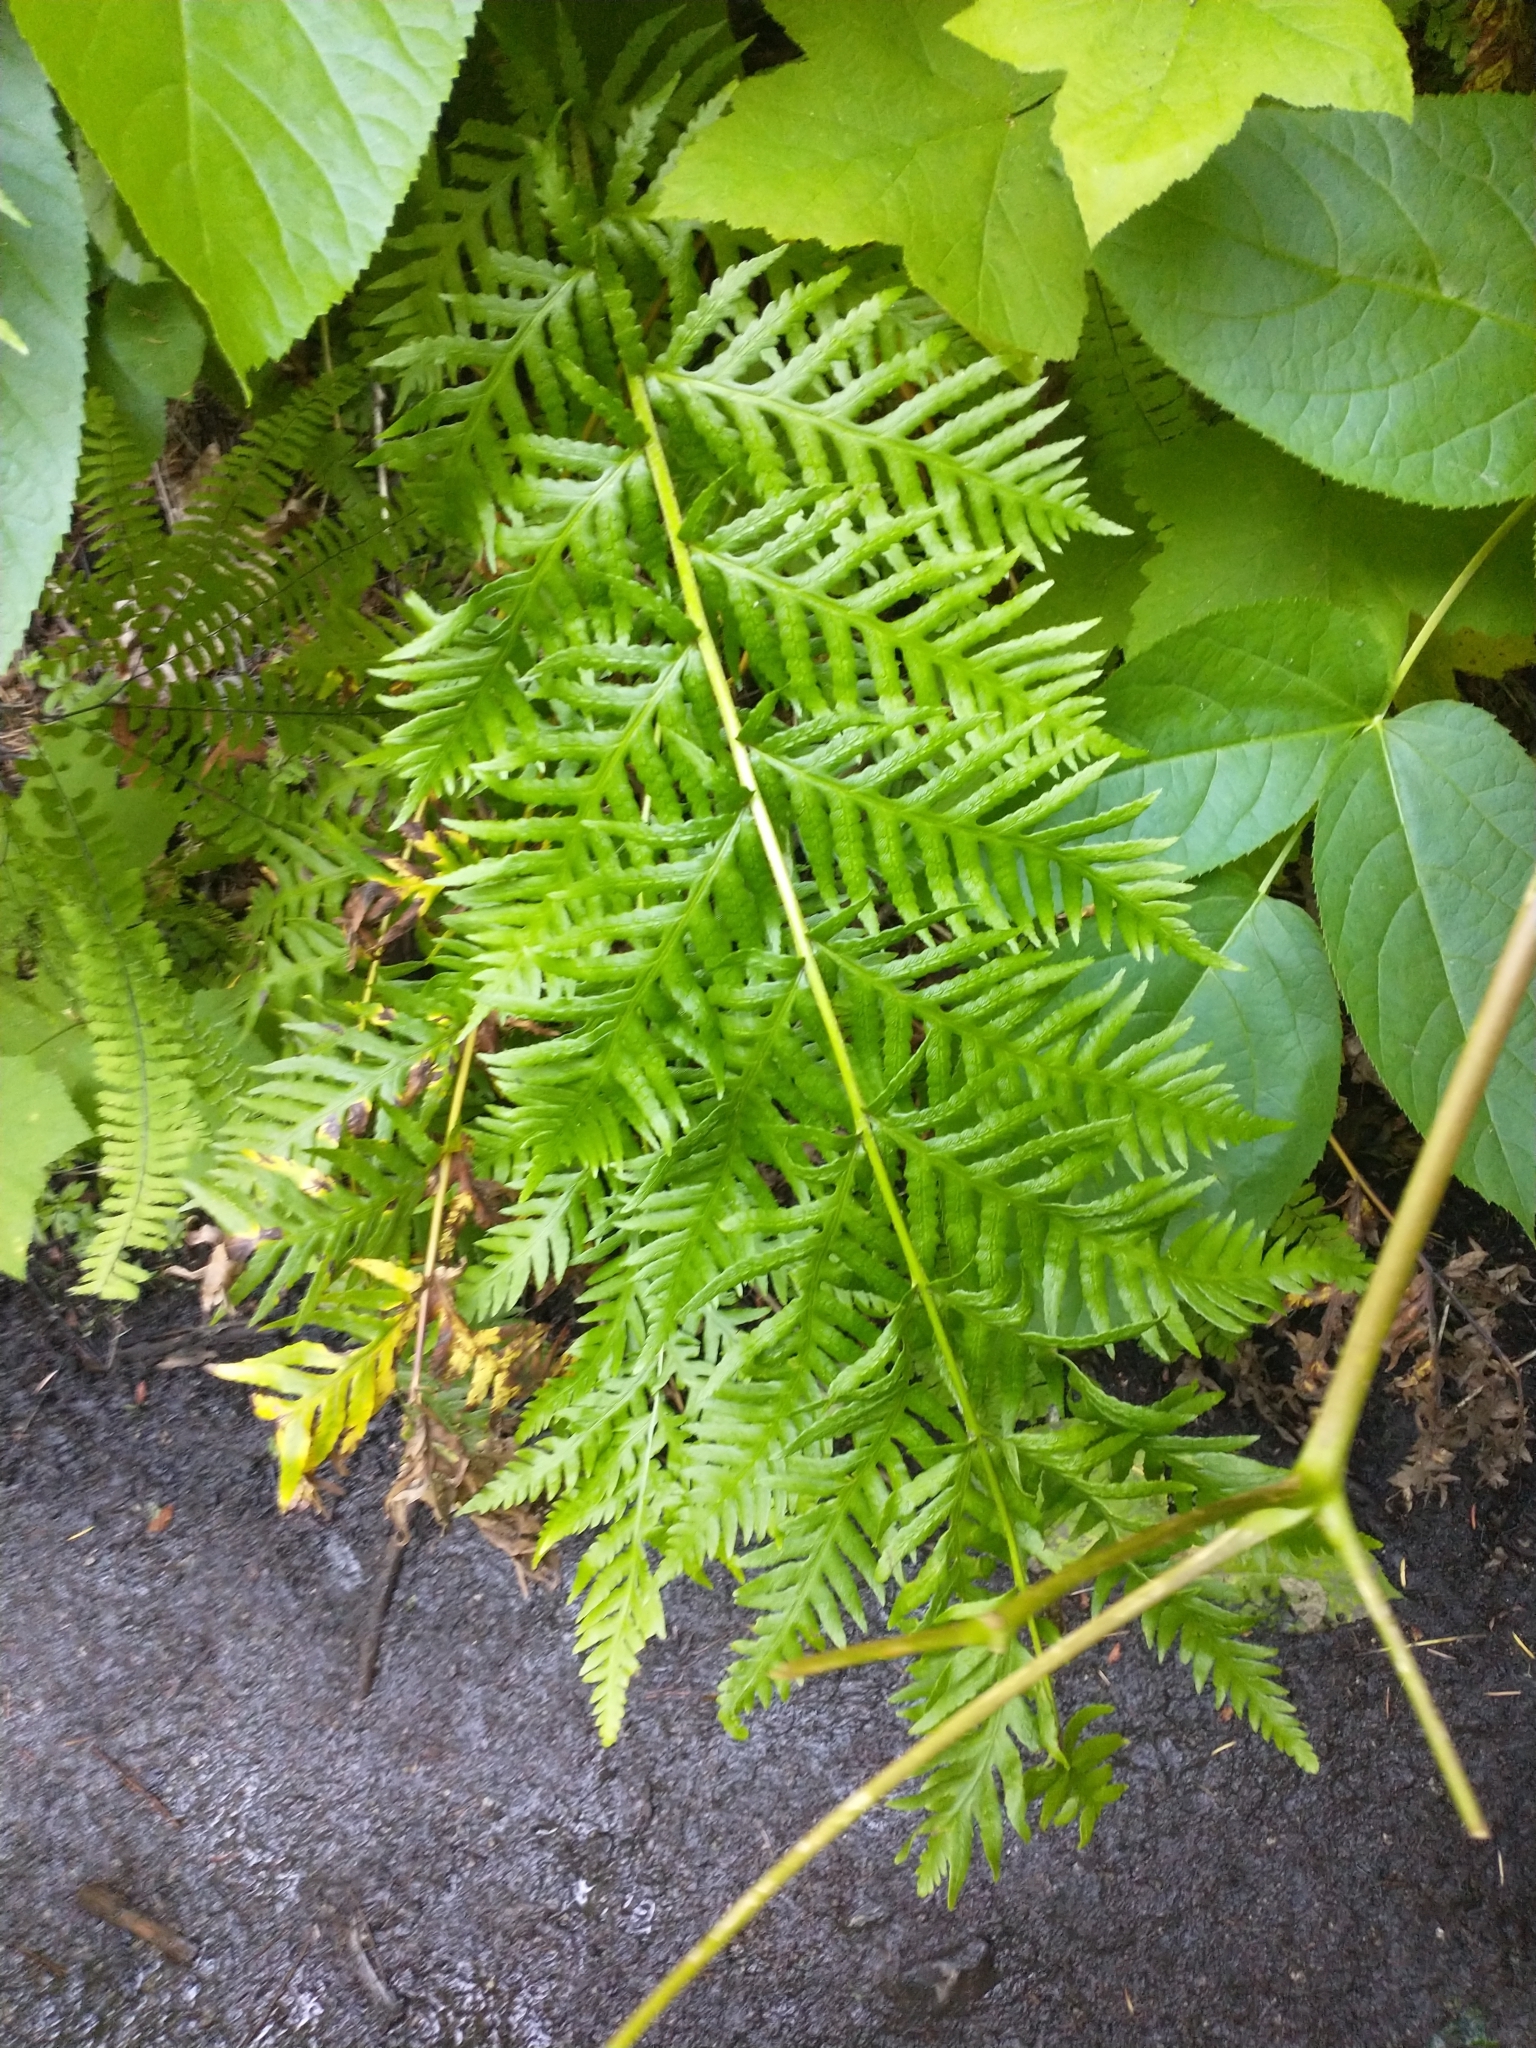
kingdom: Plantae
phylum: Tracheophyta
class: Polypodiopsida
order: Polypodiales
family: Blechnaceae
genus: Woodwardia
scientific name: Woodwardia fimbriata
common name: Giant chain fern
